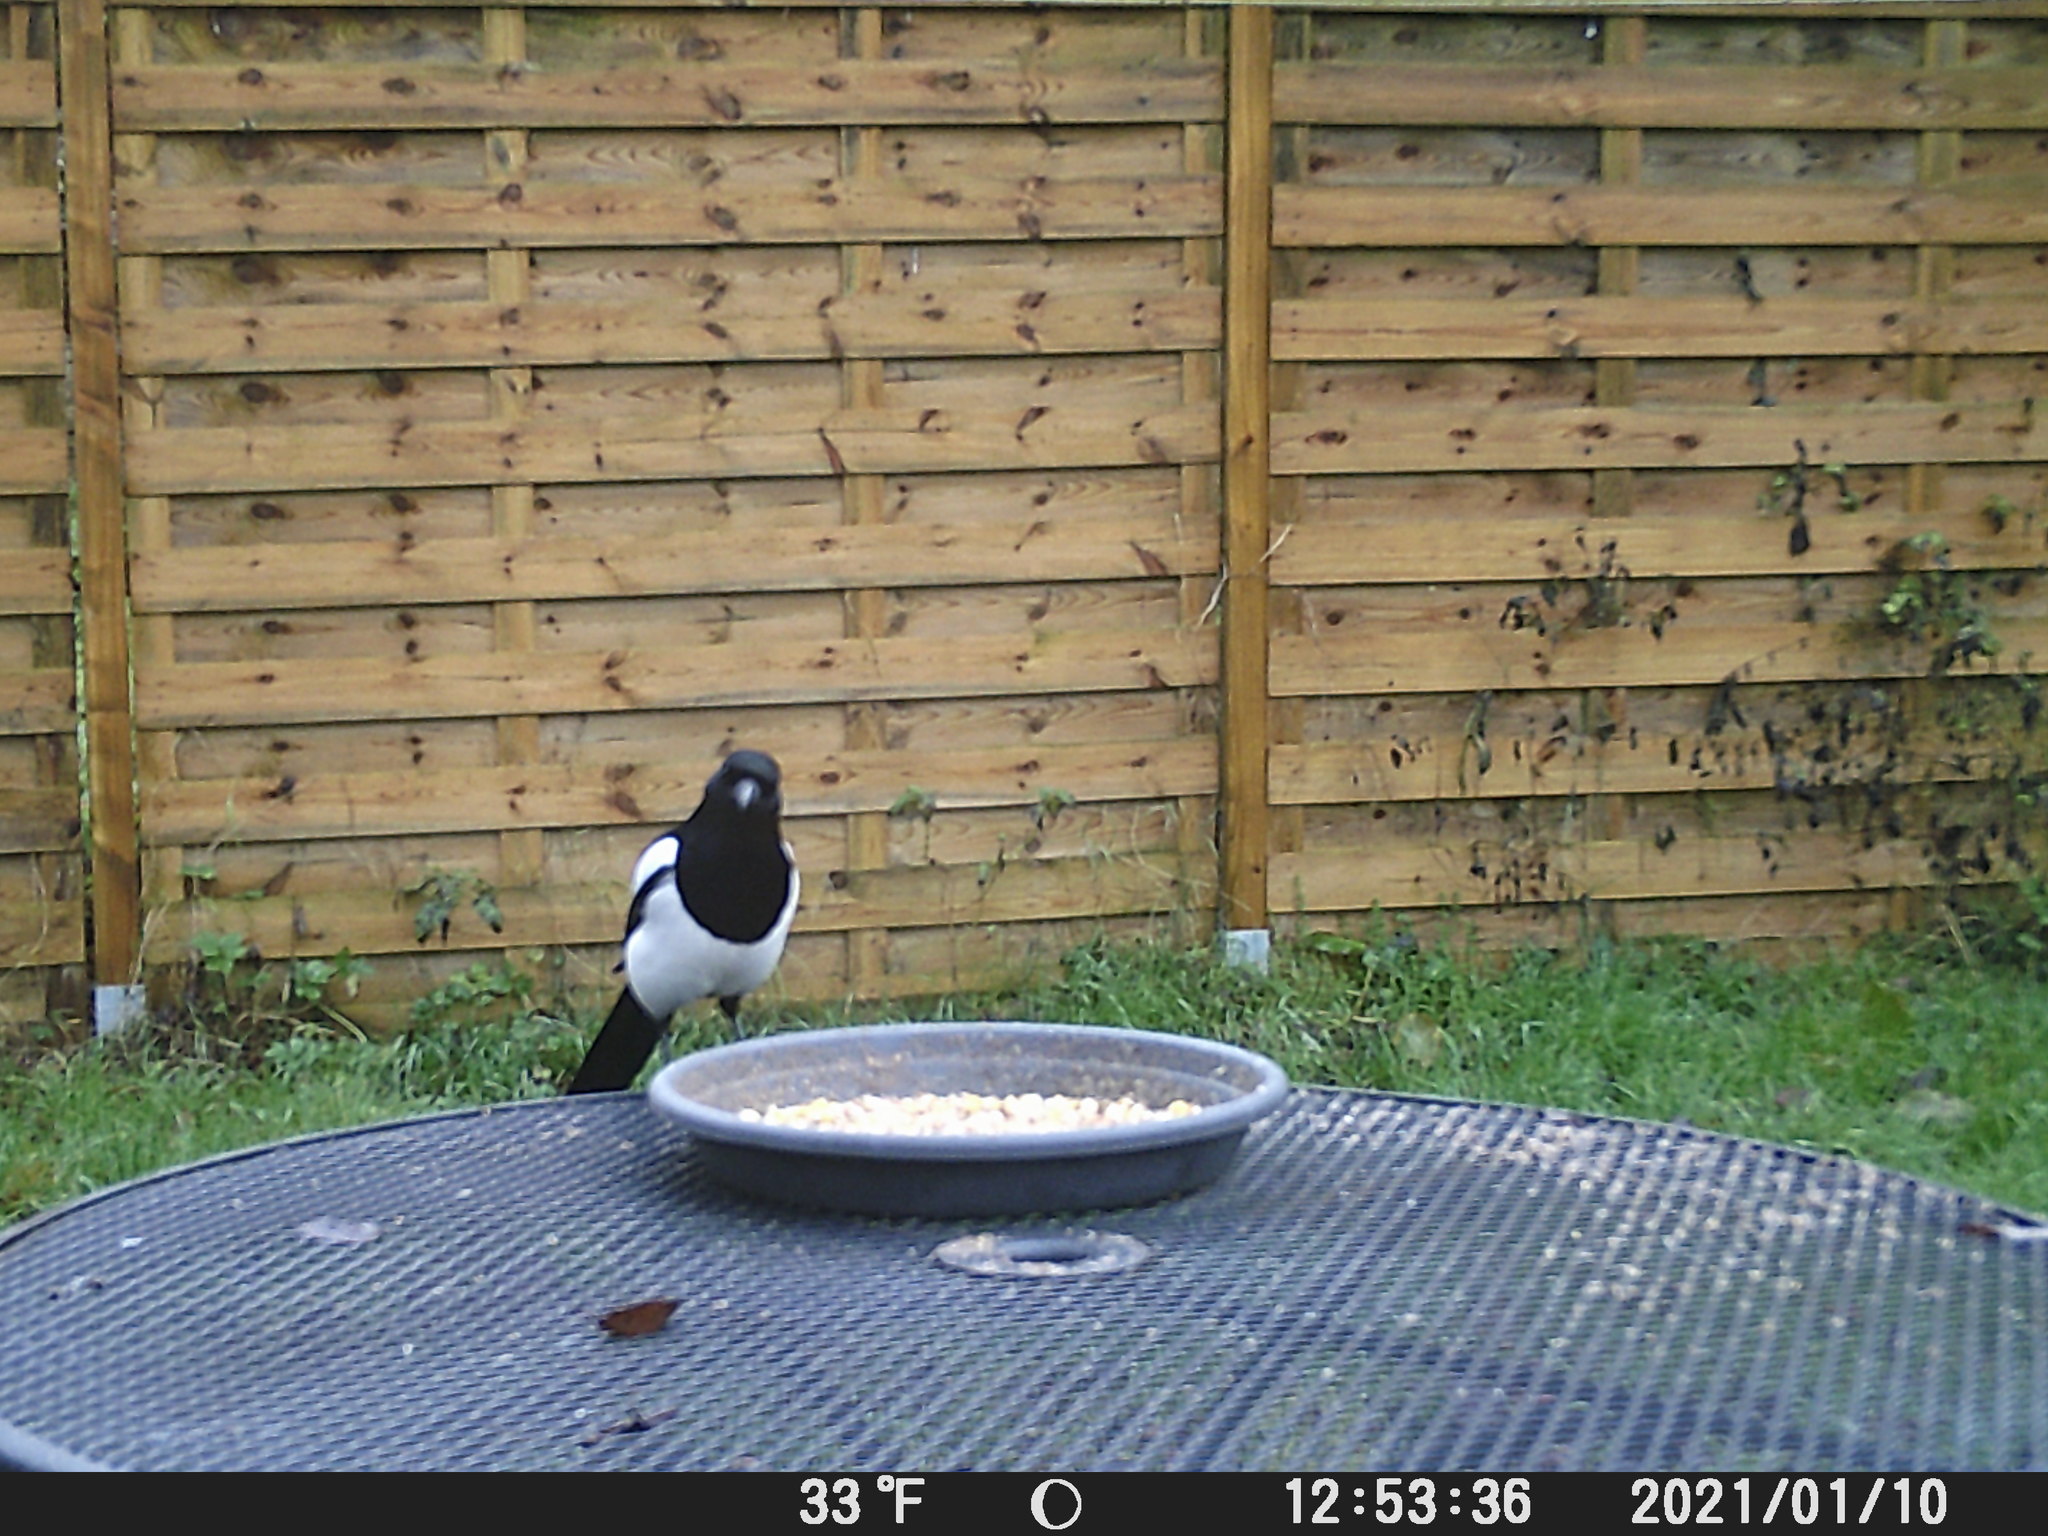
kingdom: Animalia
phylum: Chordata
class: Aves
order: Passeriformes
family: Corvidae
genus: Pica
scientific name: Pica pica
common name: Eurasian magpie
